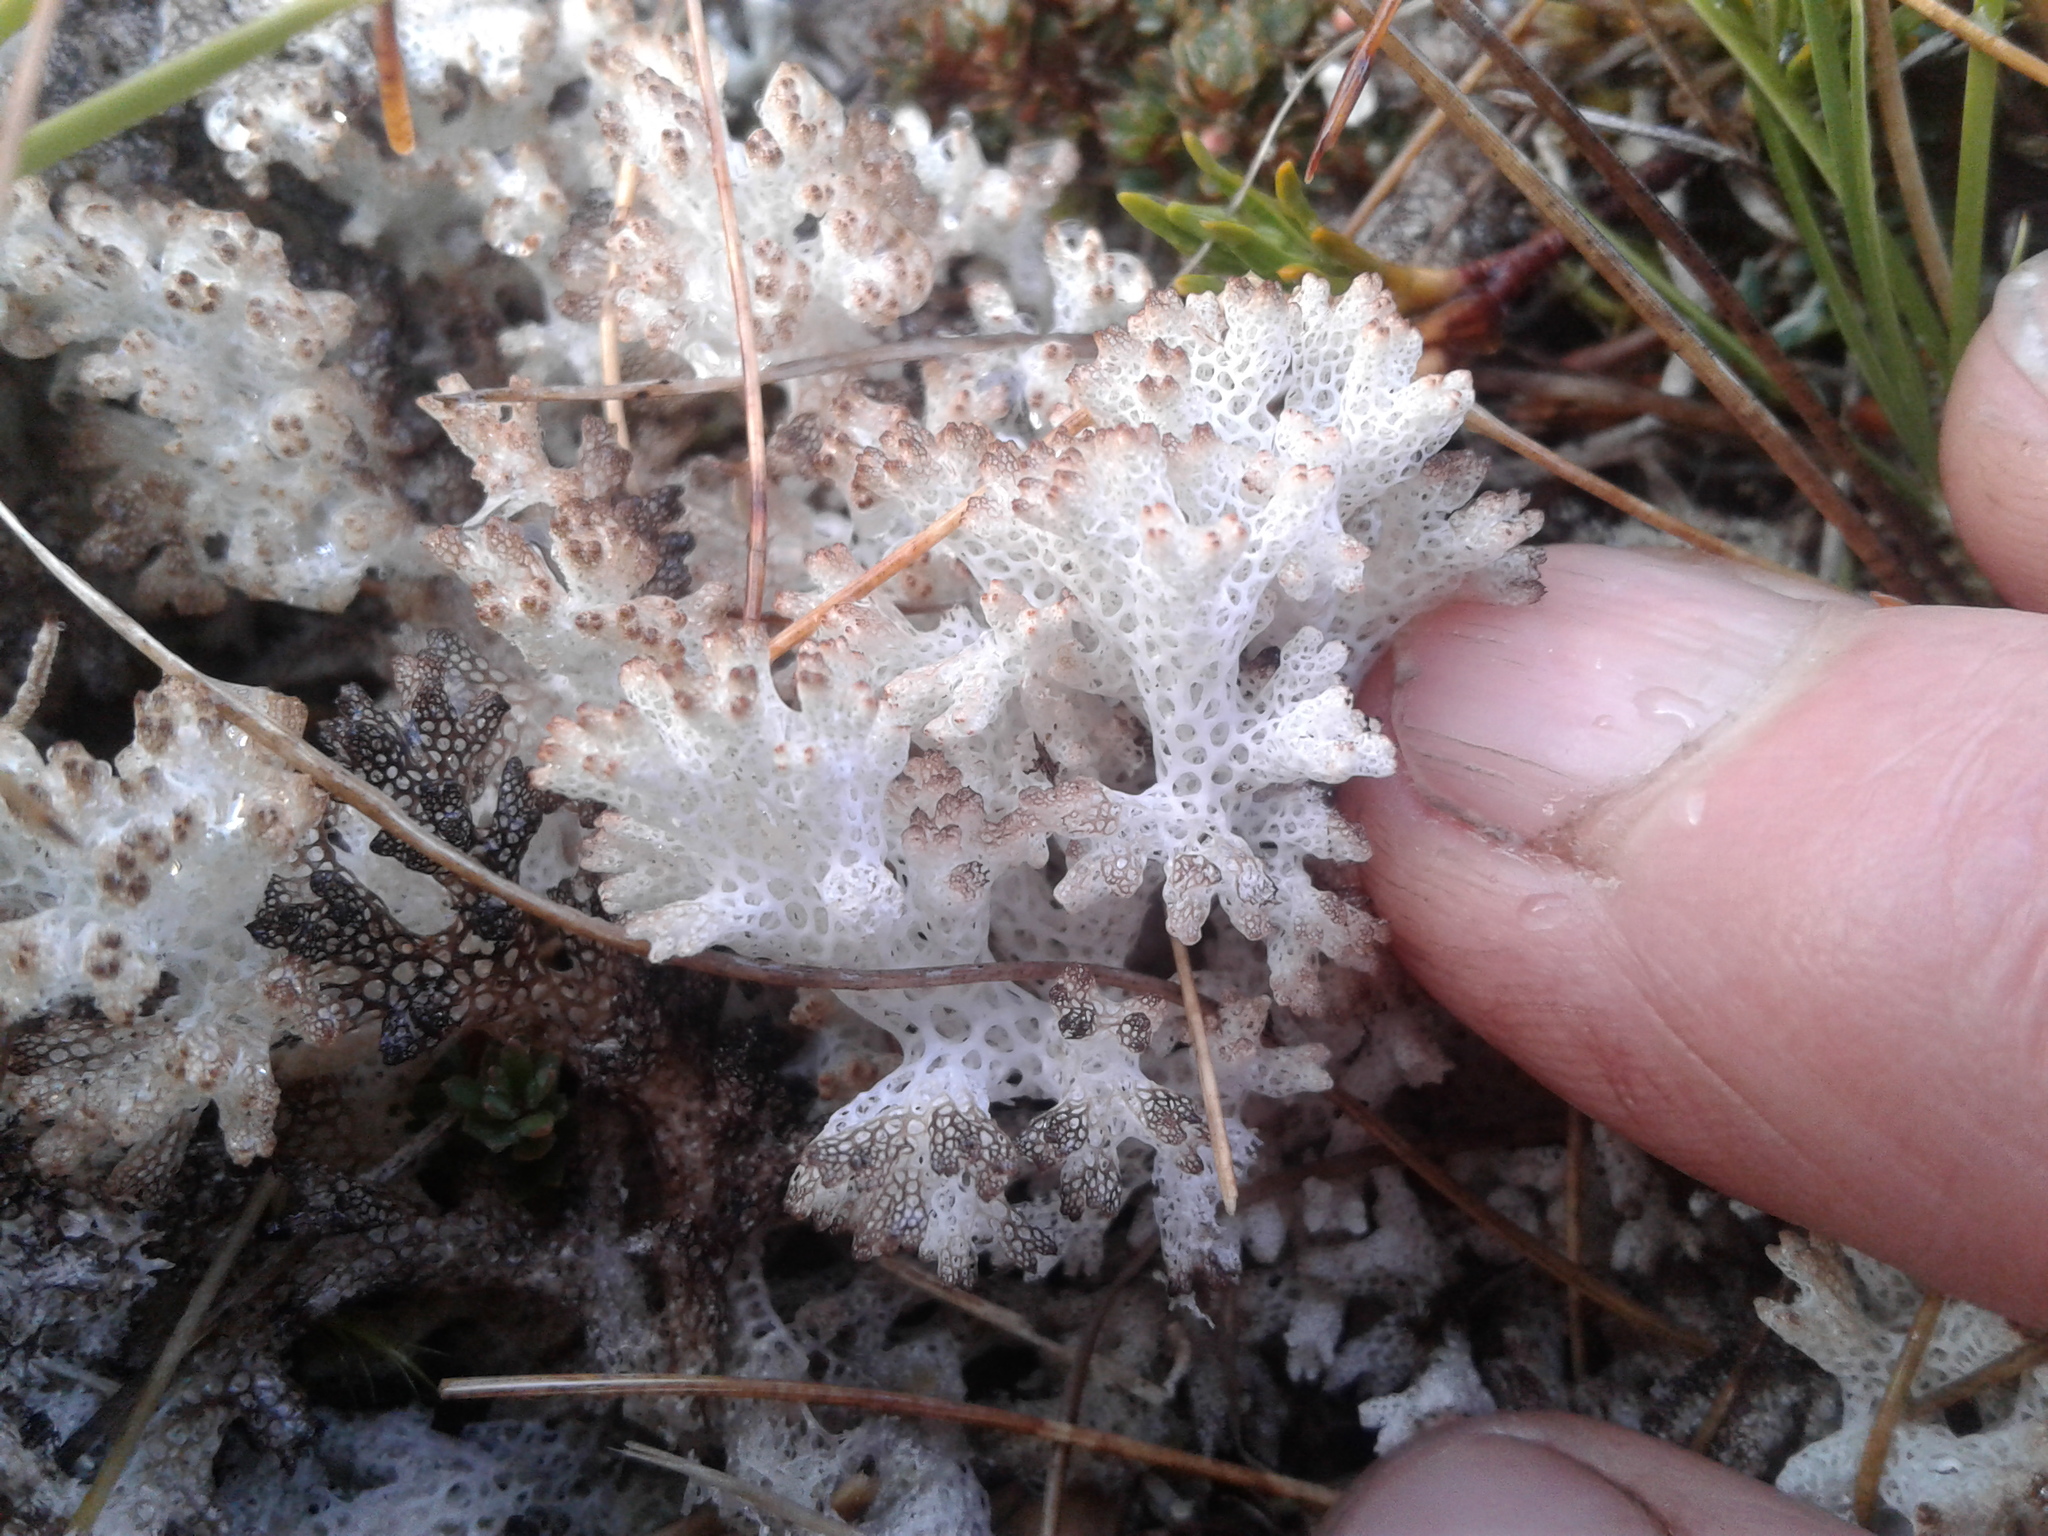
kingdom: Fungi
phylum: Ascomycota
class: Lecanoromycetes
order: Lecanorales
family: Cladoniaceae
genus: Pulchrocladia
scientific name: Pulchrocladia retipora
